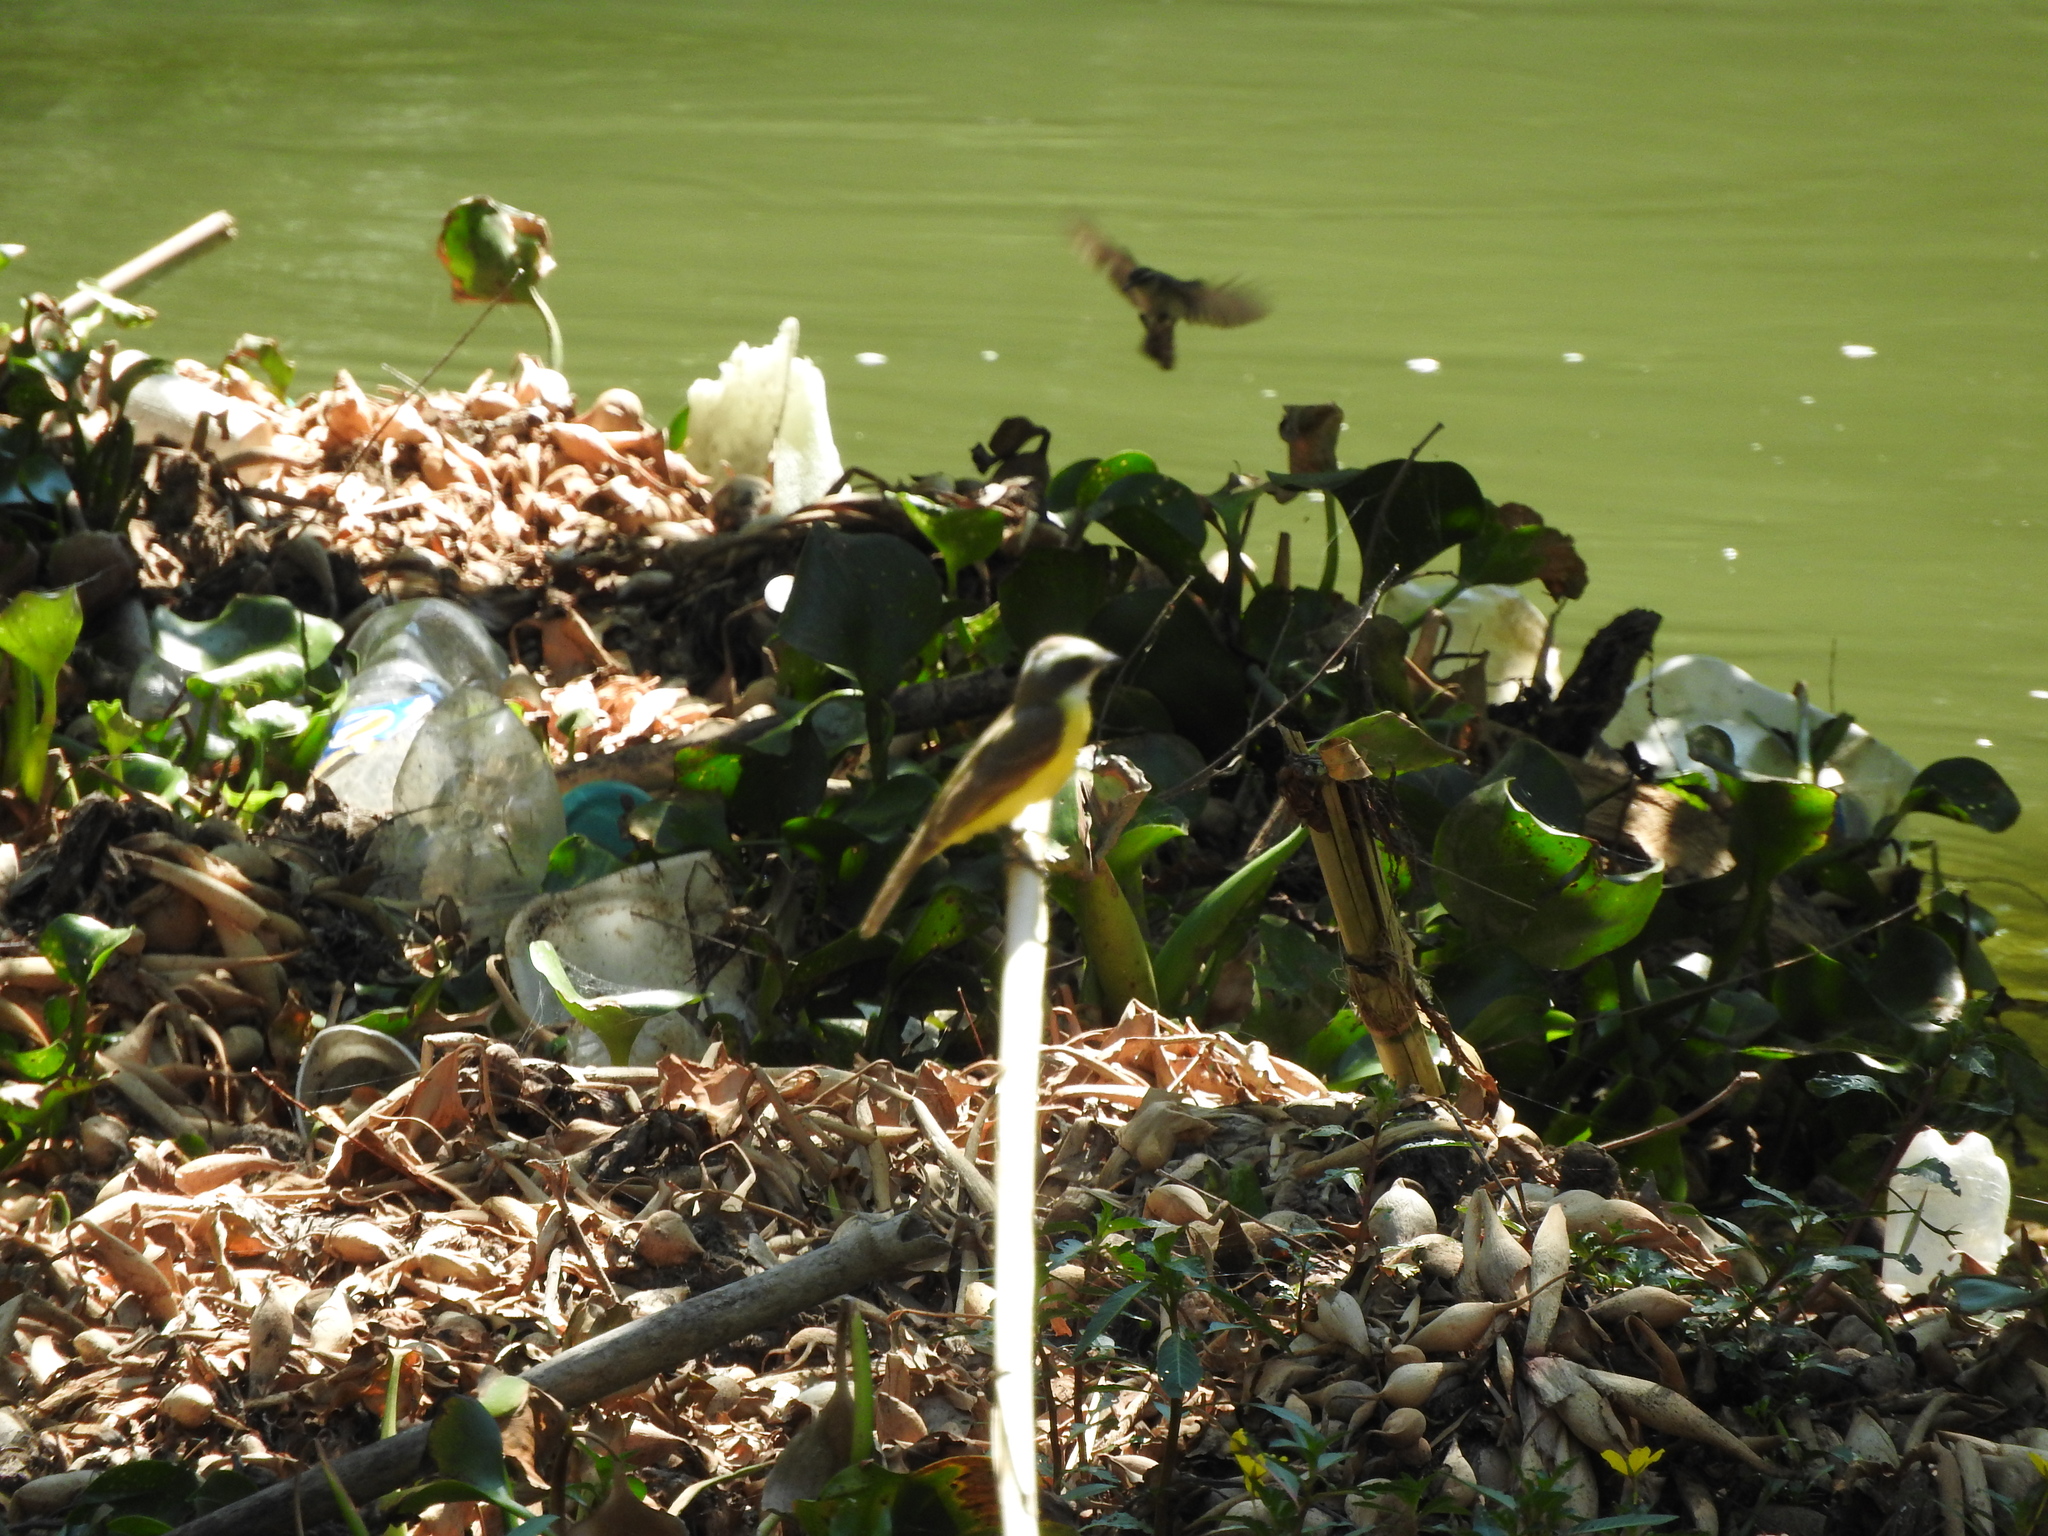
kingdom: Animalia
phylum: Chordata
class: Aves
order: Passeriformes
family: Tyrannidae
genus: Myiozetetes
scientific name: Myiozetetes similis
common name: Social flycatcher
